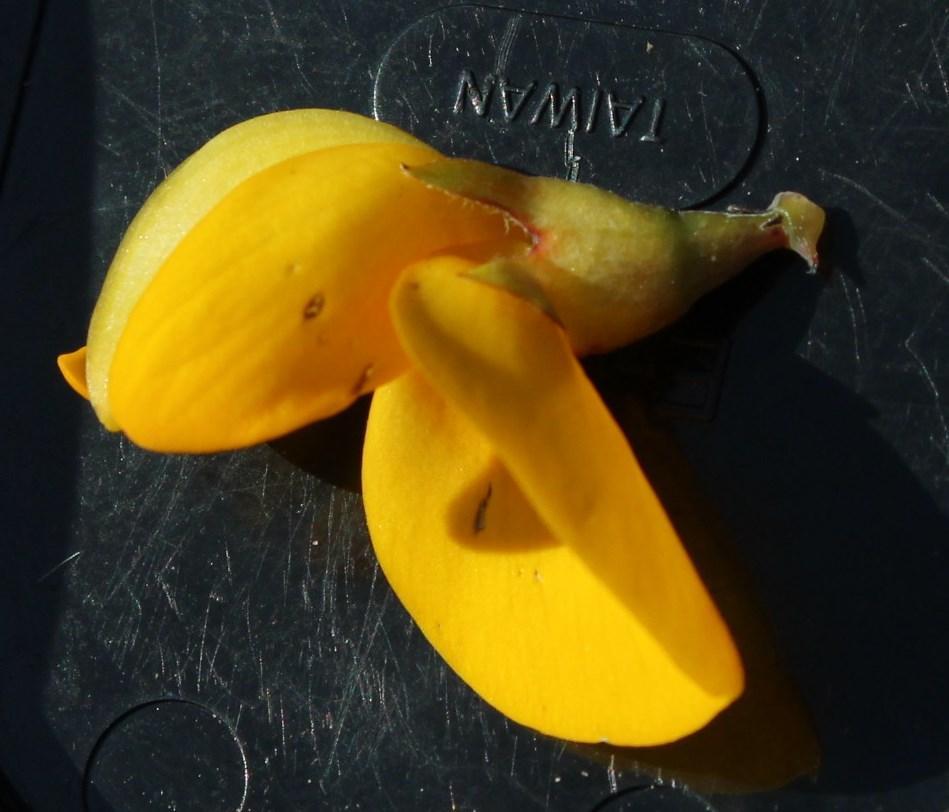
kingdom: Plantae
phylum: Tracheophyta
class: Magnoliopsida
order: Fabales
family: Fabaceae
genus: Rafnia
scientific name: Rafnia triflora
